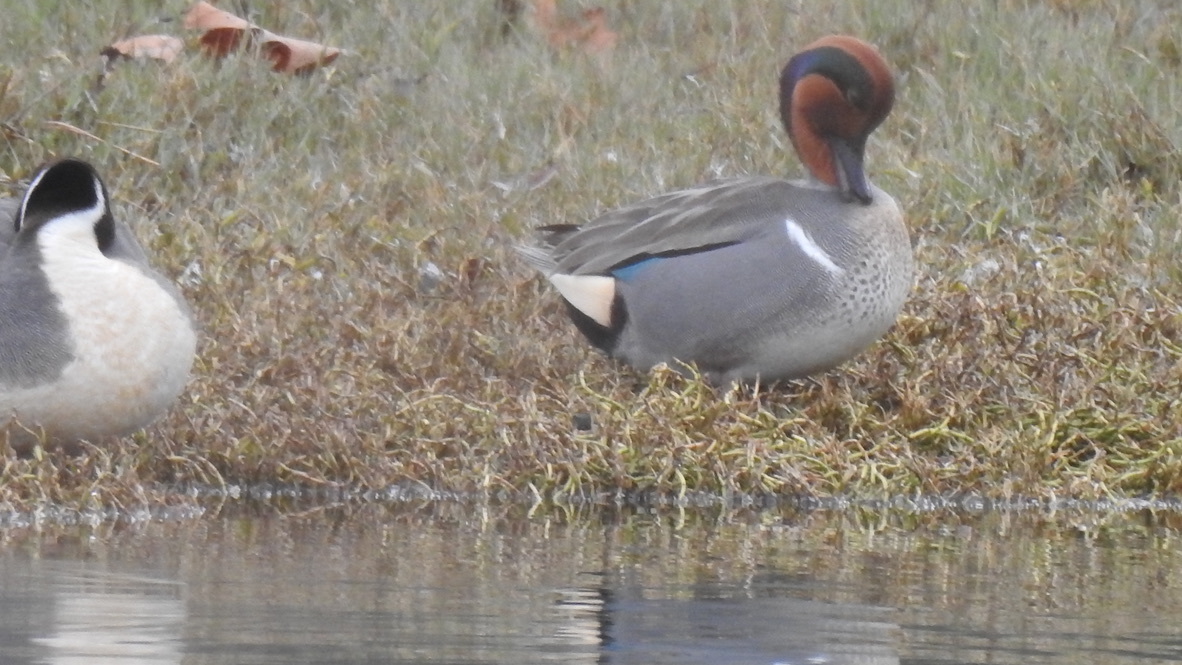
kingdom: Animalia
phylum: Chordata
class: Aves
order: Anseriformes
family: Anatidae
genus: Anas
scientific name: Anas crecca
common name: Eurasian teal
